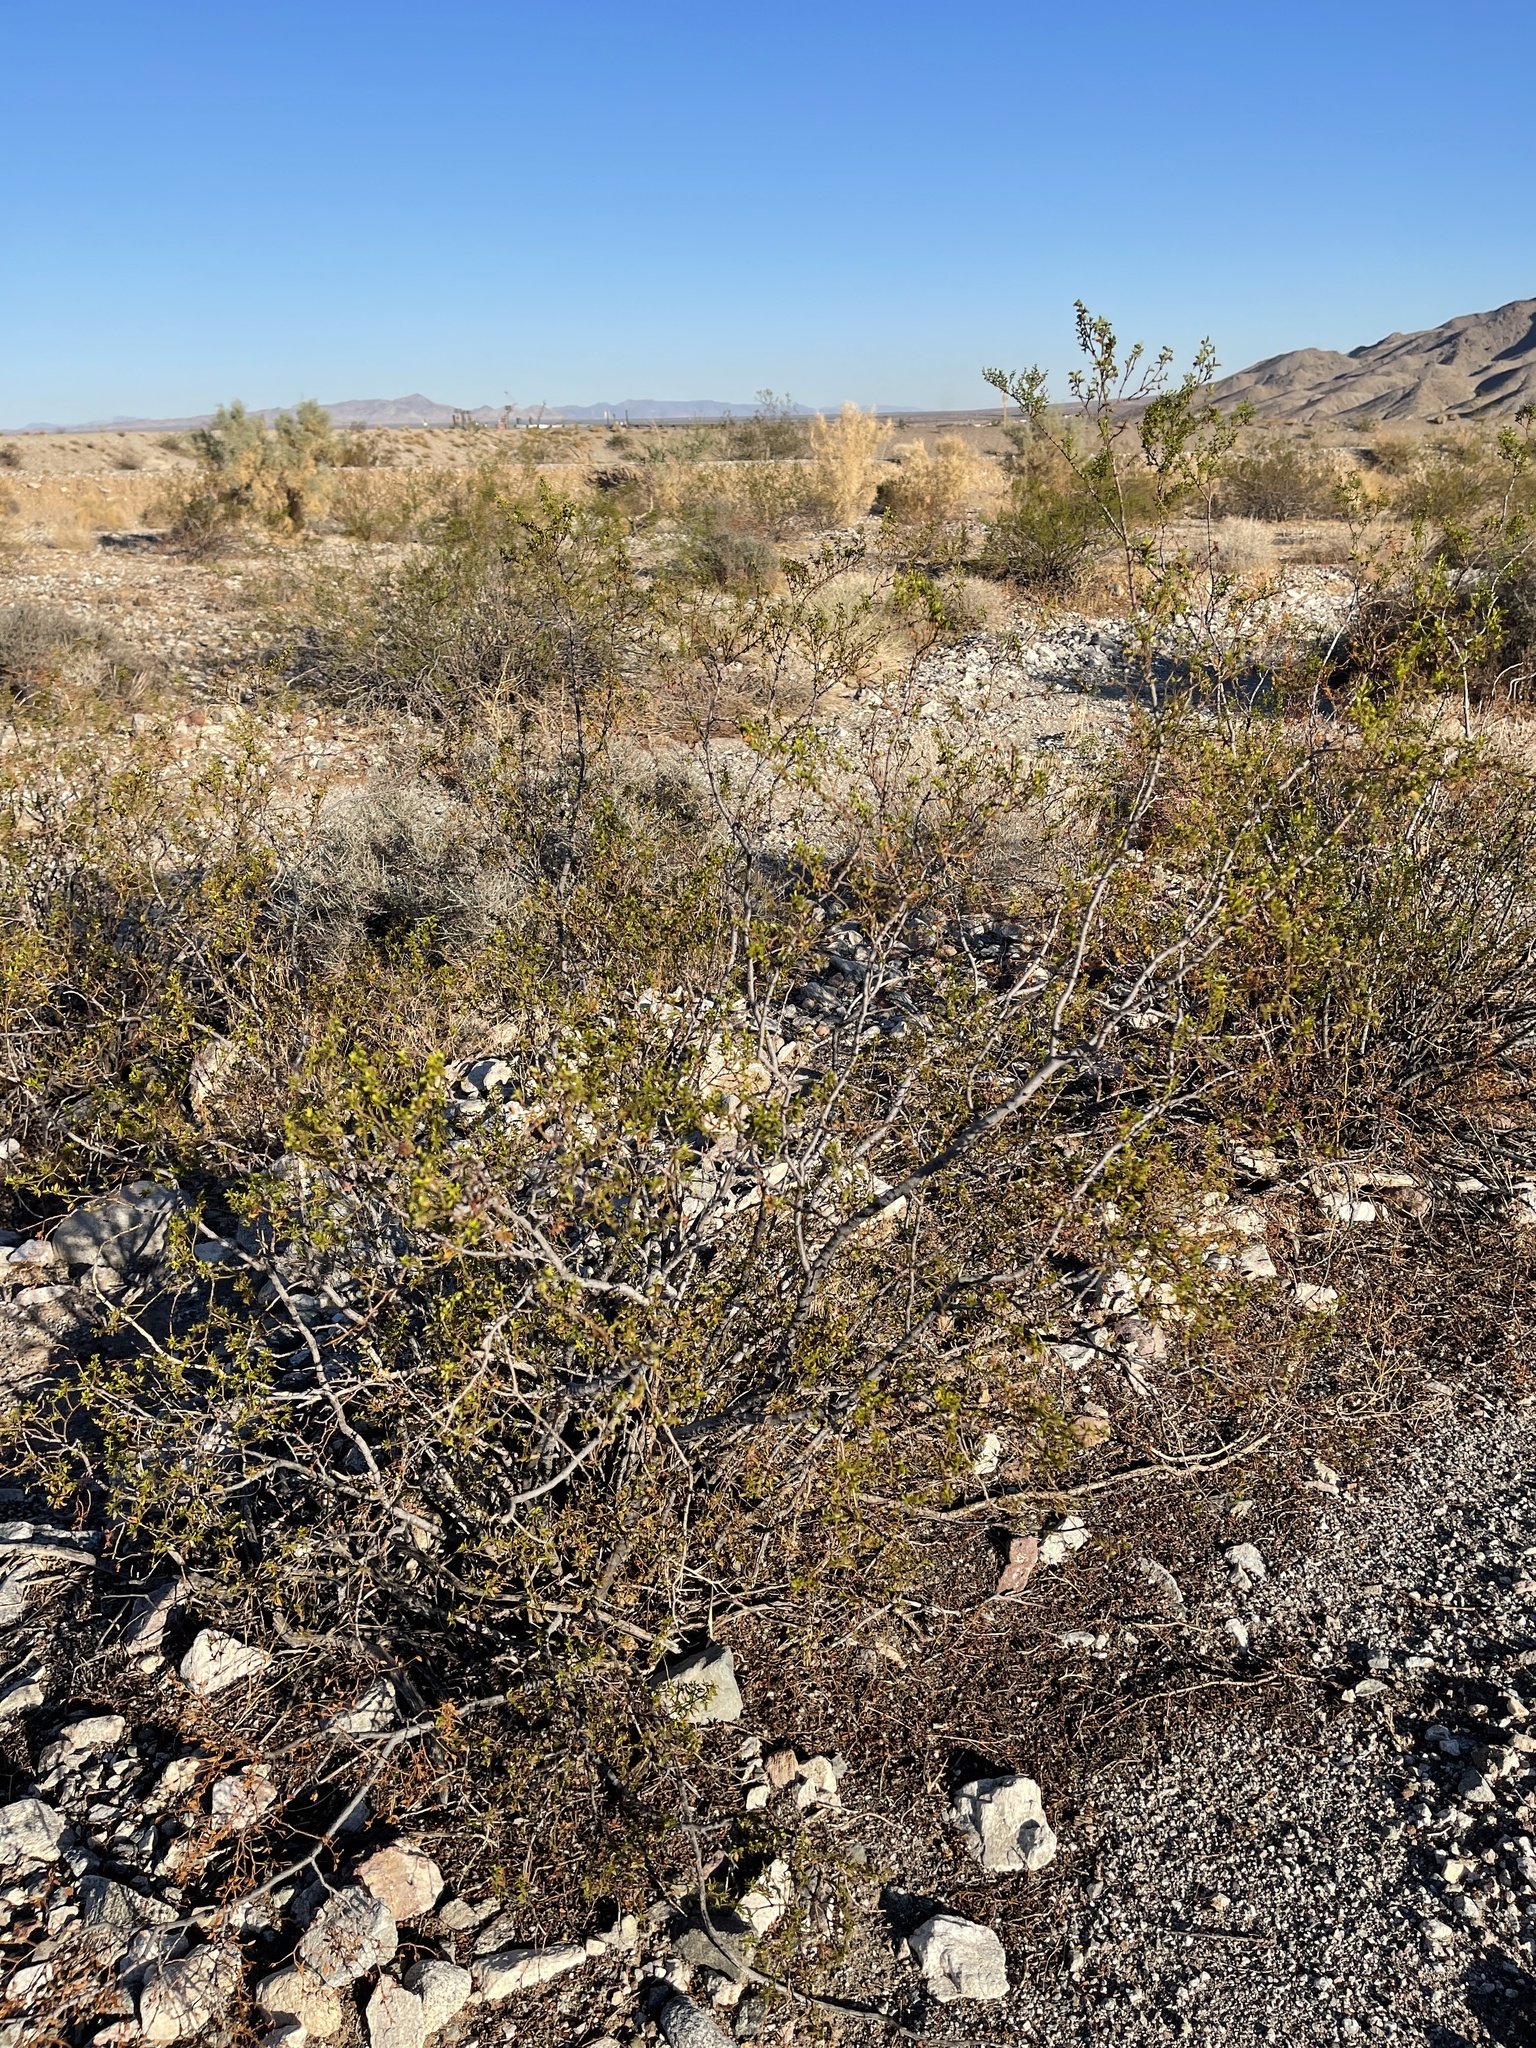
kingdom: Plantae
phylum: Tracheophyta
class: Magnoliopsida
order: Zygophyllales
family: Zygophyllaceae
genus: Larrea
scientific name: Larrea tridentata
